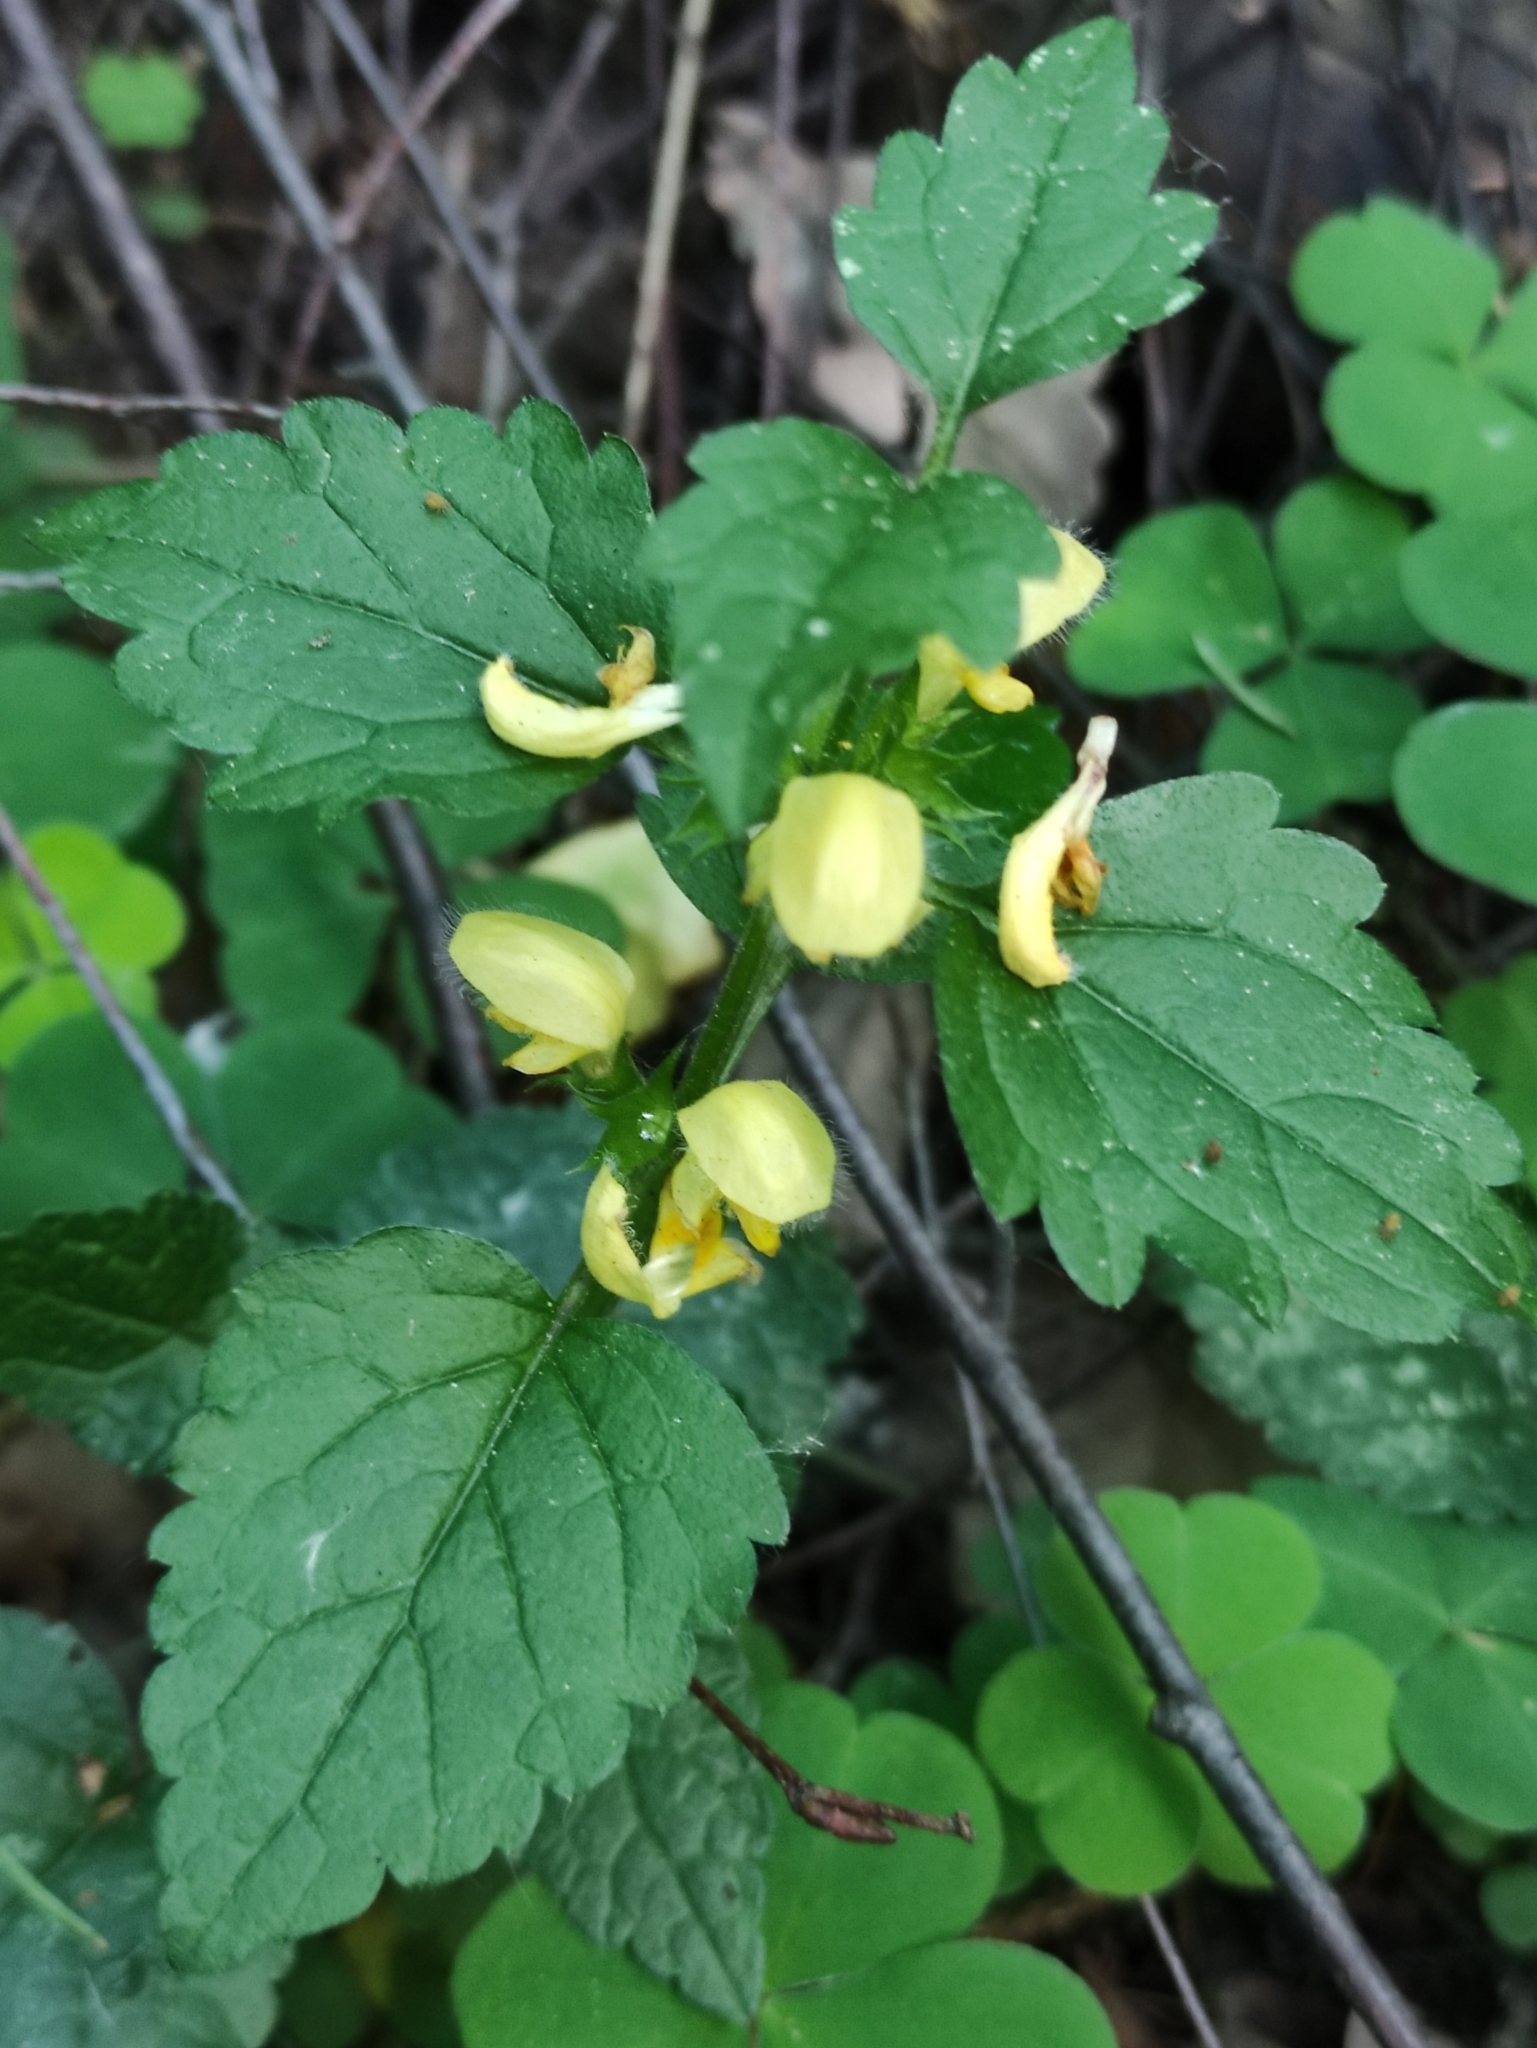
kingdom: Plantae
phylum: Tracheophyta
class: Magnoliopsida
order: Lamiales
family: Lamiaceae
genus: Lamium
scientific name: Lamium galeobdolon
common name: Yellow archangel
